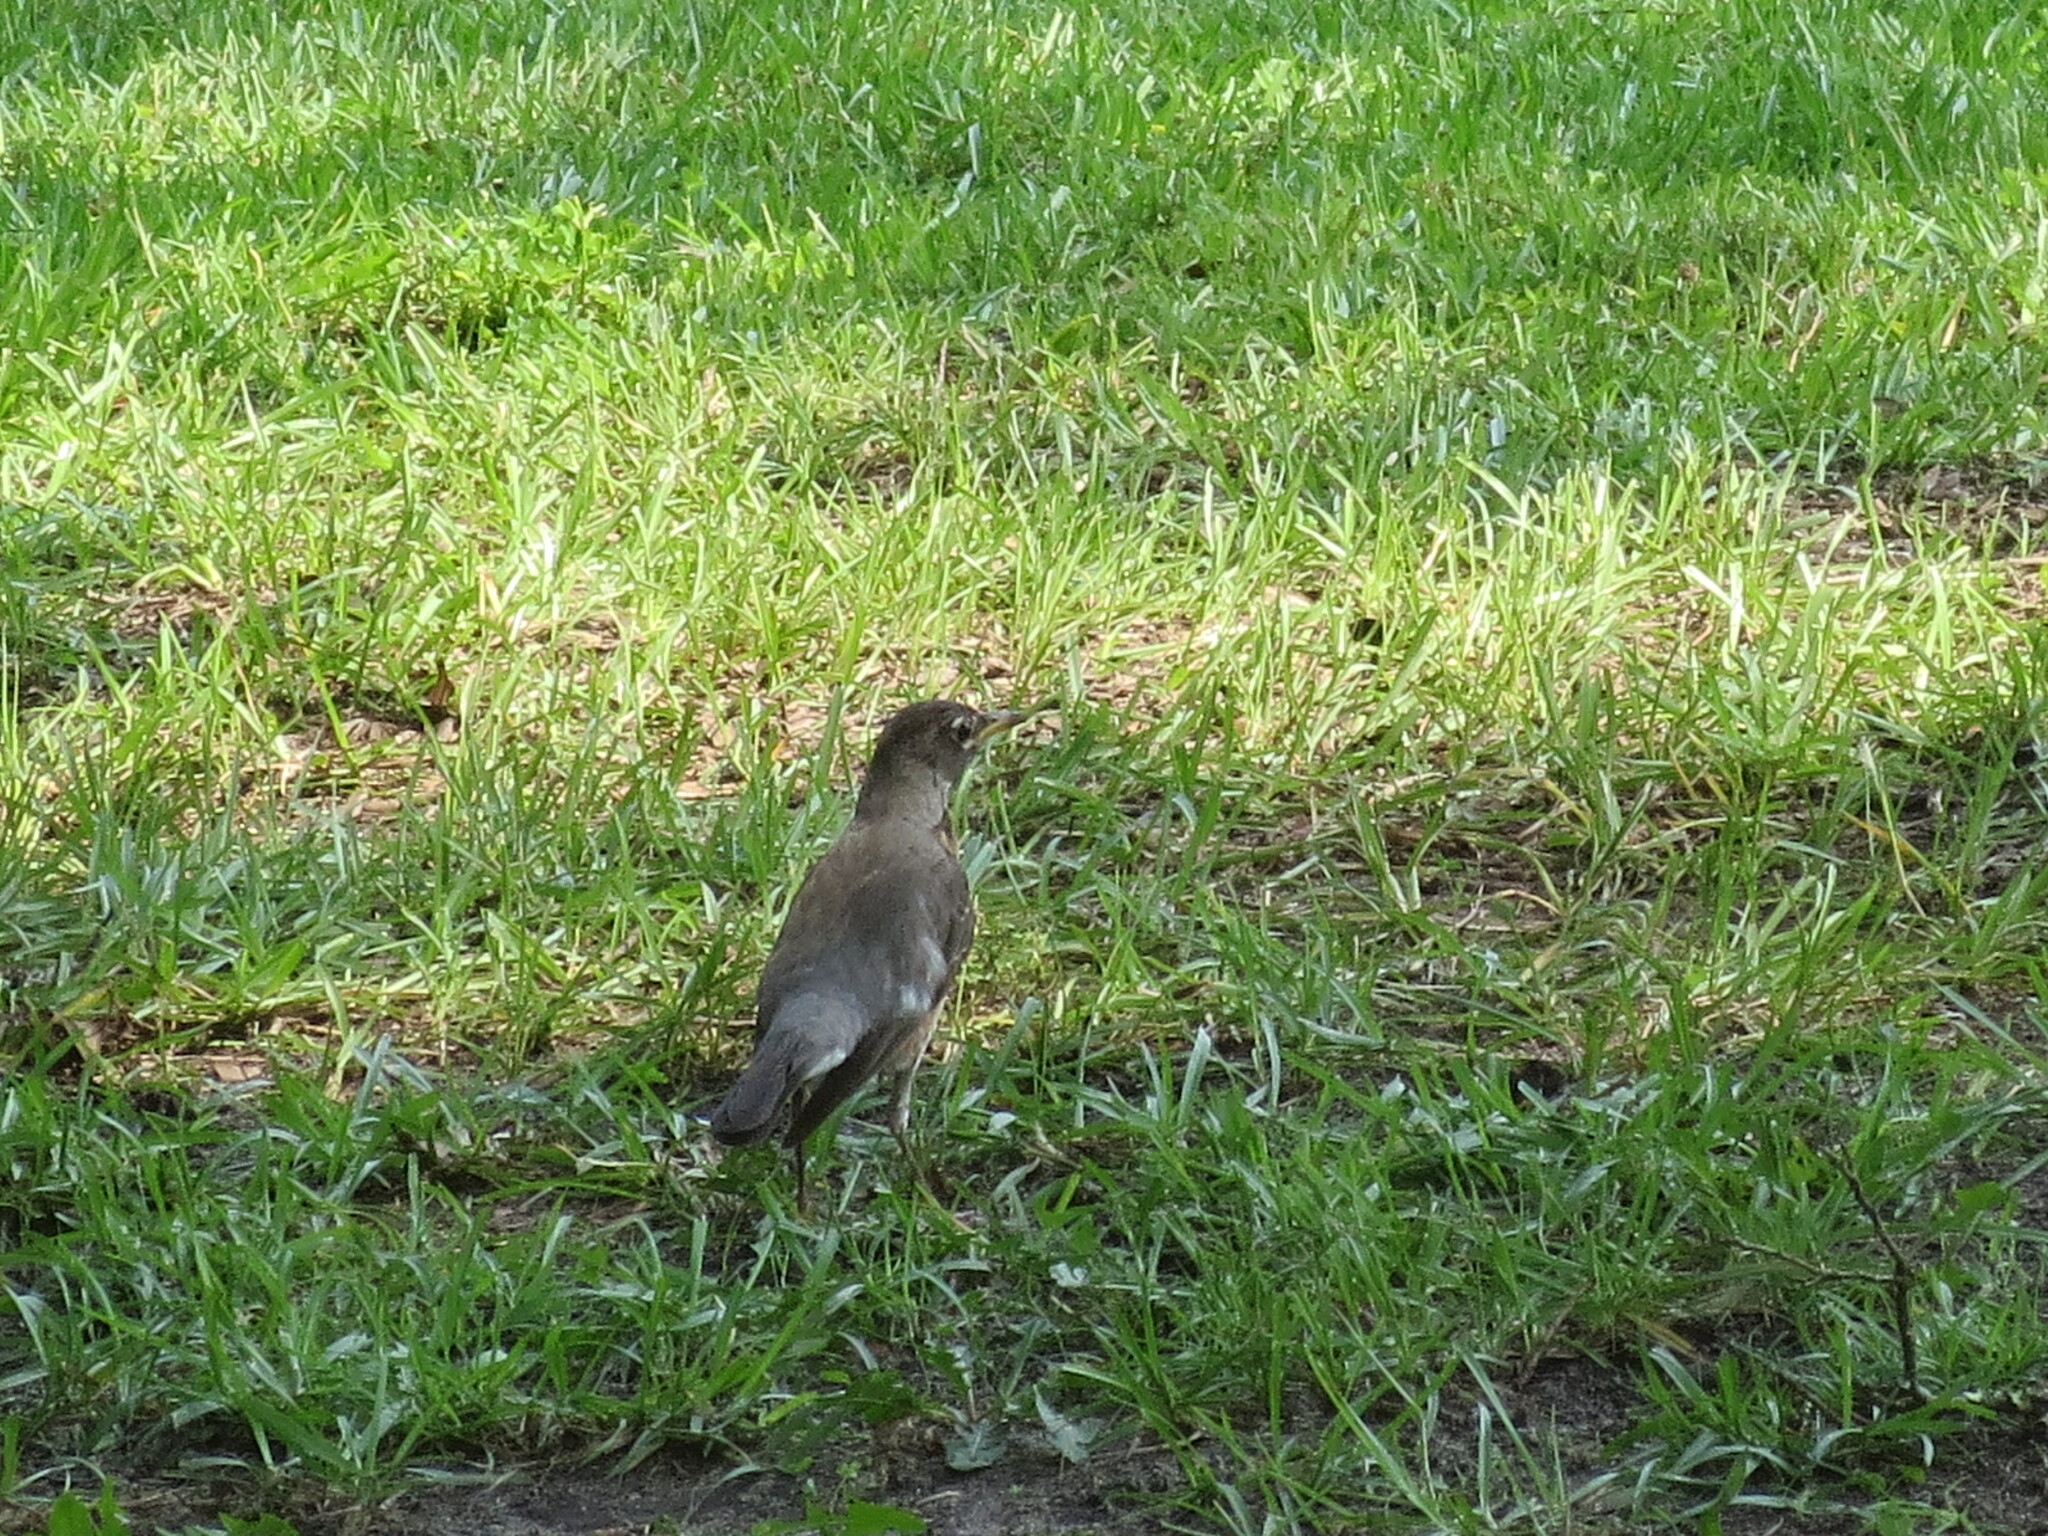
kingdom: Animalia
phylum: Chordata
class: Aves
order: Passeriformes
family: Turdidae
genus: Turdus
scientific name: Turdus migratorius
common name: American robin
